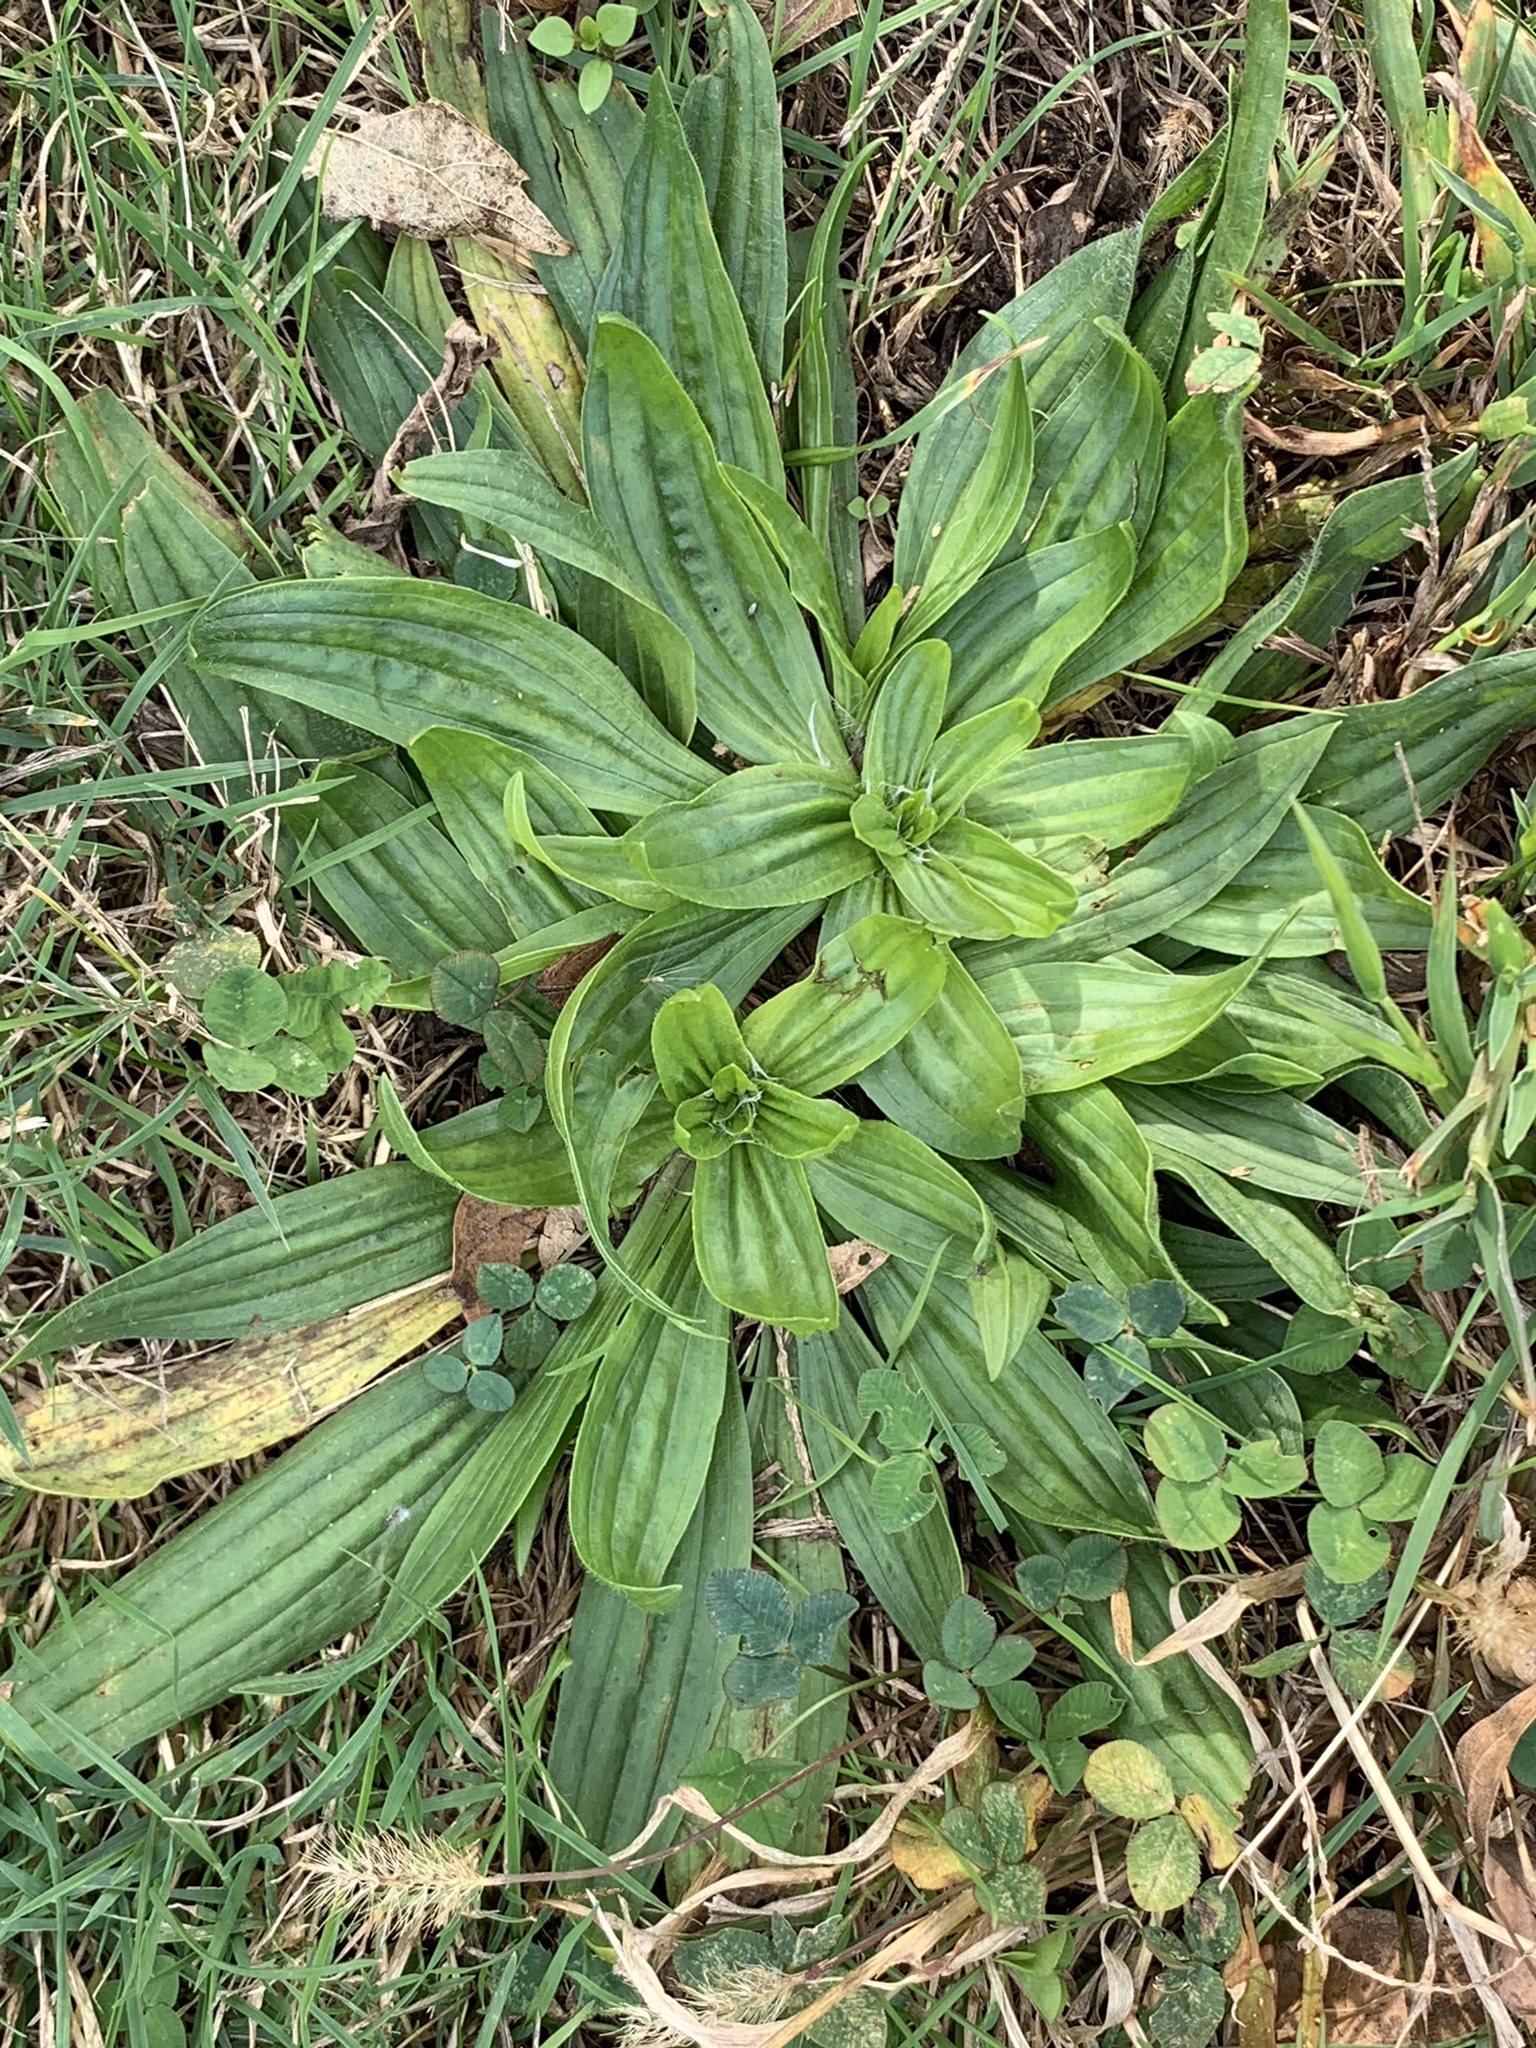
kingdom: Plantae
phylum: Tracheophyta
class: Magnoliopsida
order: Lamiales
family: Plantaginaceae
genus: Plantago
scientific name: Plantago lanceolata
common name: Ribwort plantain
